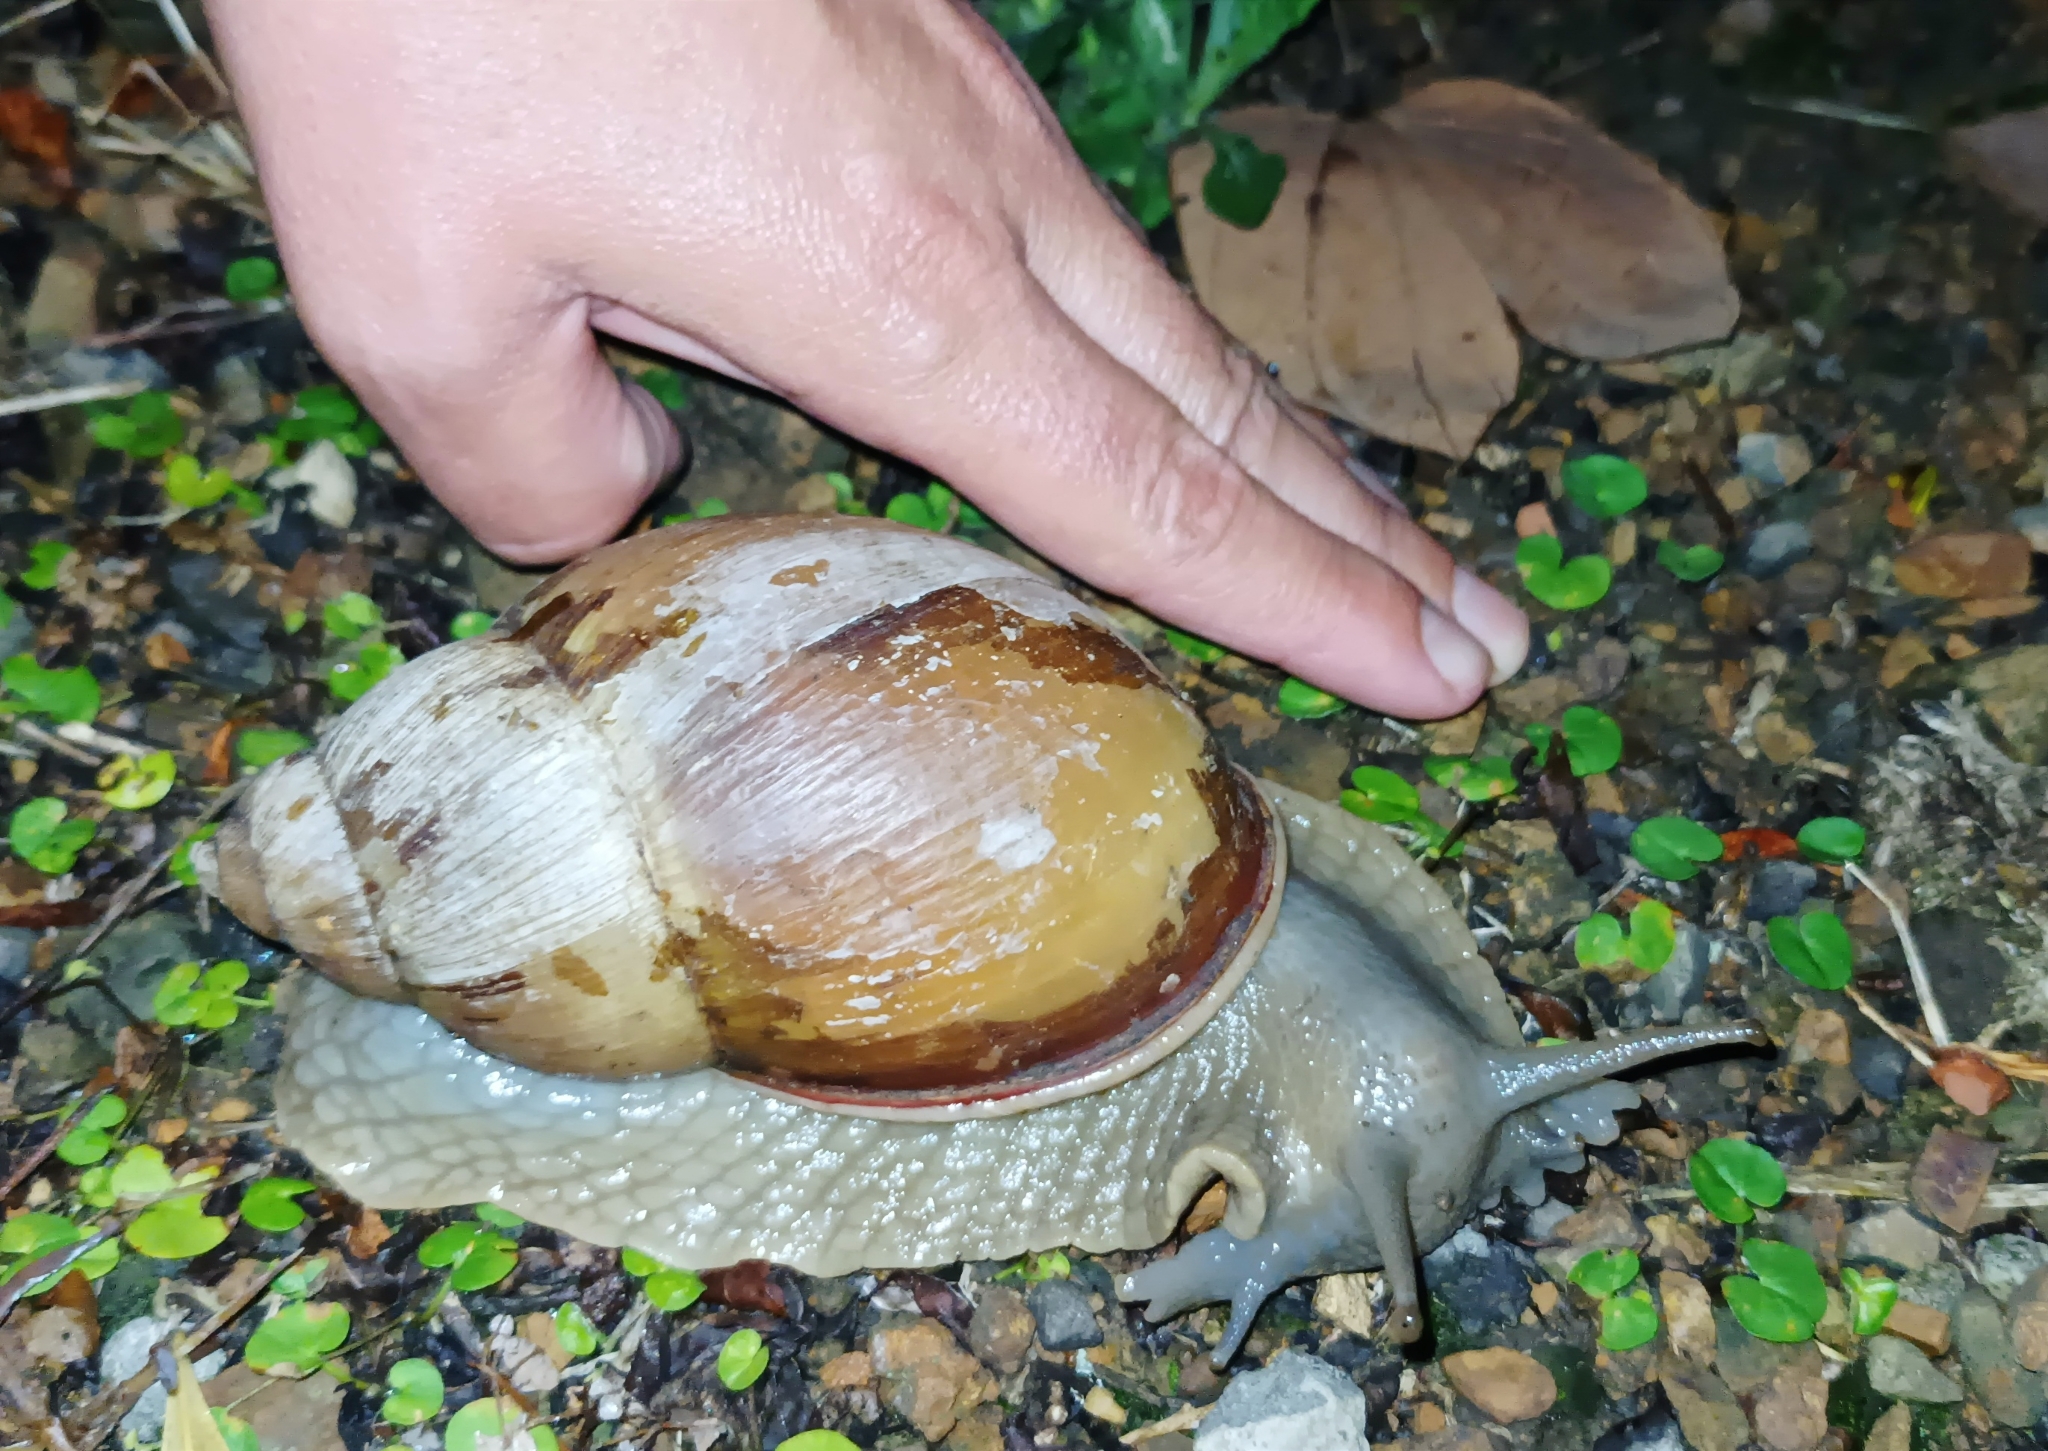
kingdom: Animalia
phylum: Mollusca
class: Gastropoda
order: Stylommatophora
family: Strophocheilidae
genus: Megalobulimus
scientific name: Megalobulimus oblongus
